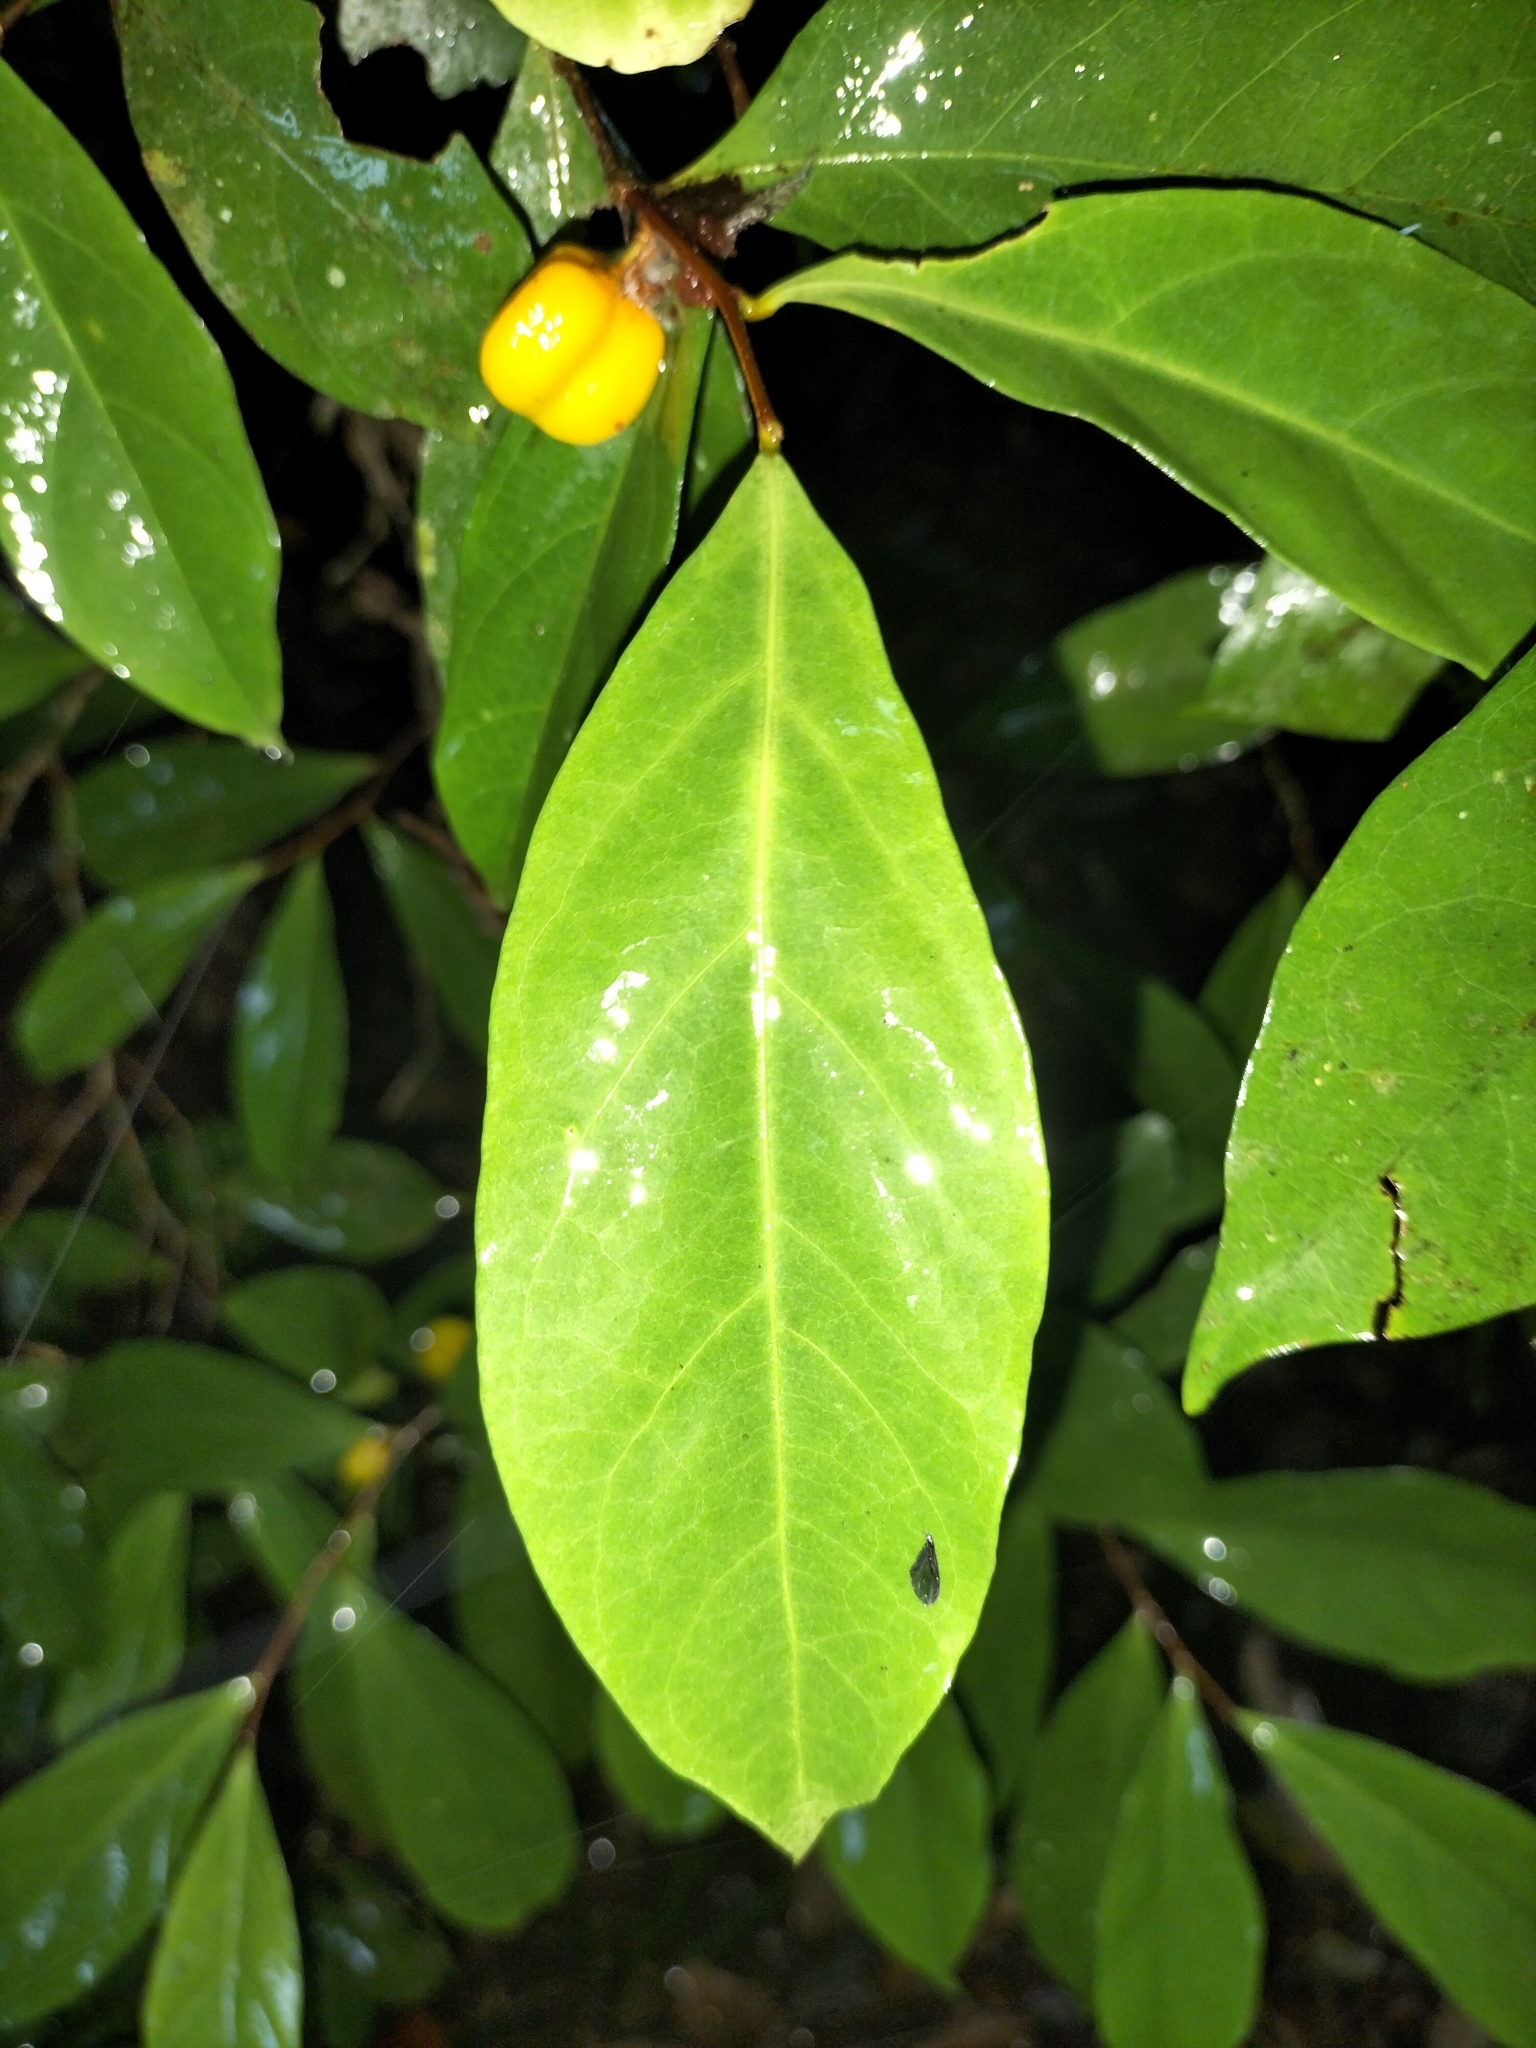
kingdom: Plantae
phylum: Tracheophyta
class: Magnoliopsida
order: Malpighiales
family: Dichapetalaceae
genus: Dichapetalum
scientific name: Dichapetalum papuanum
